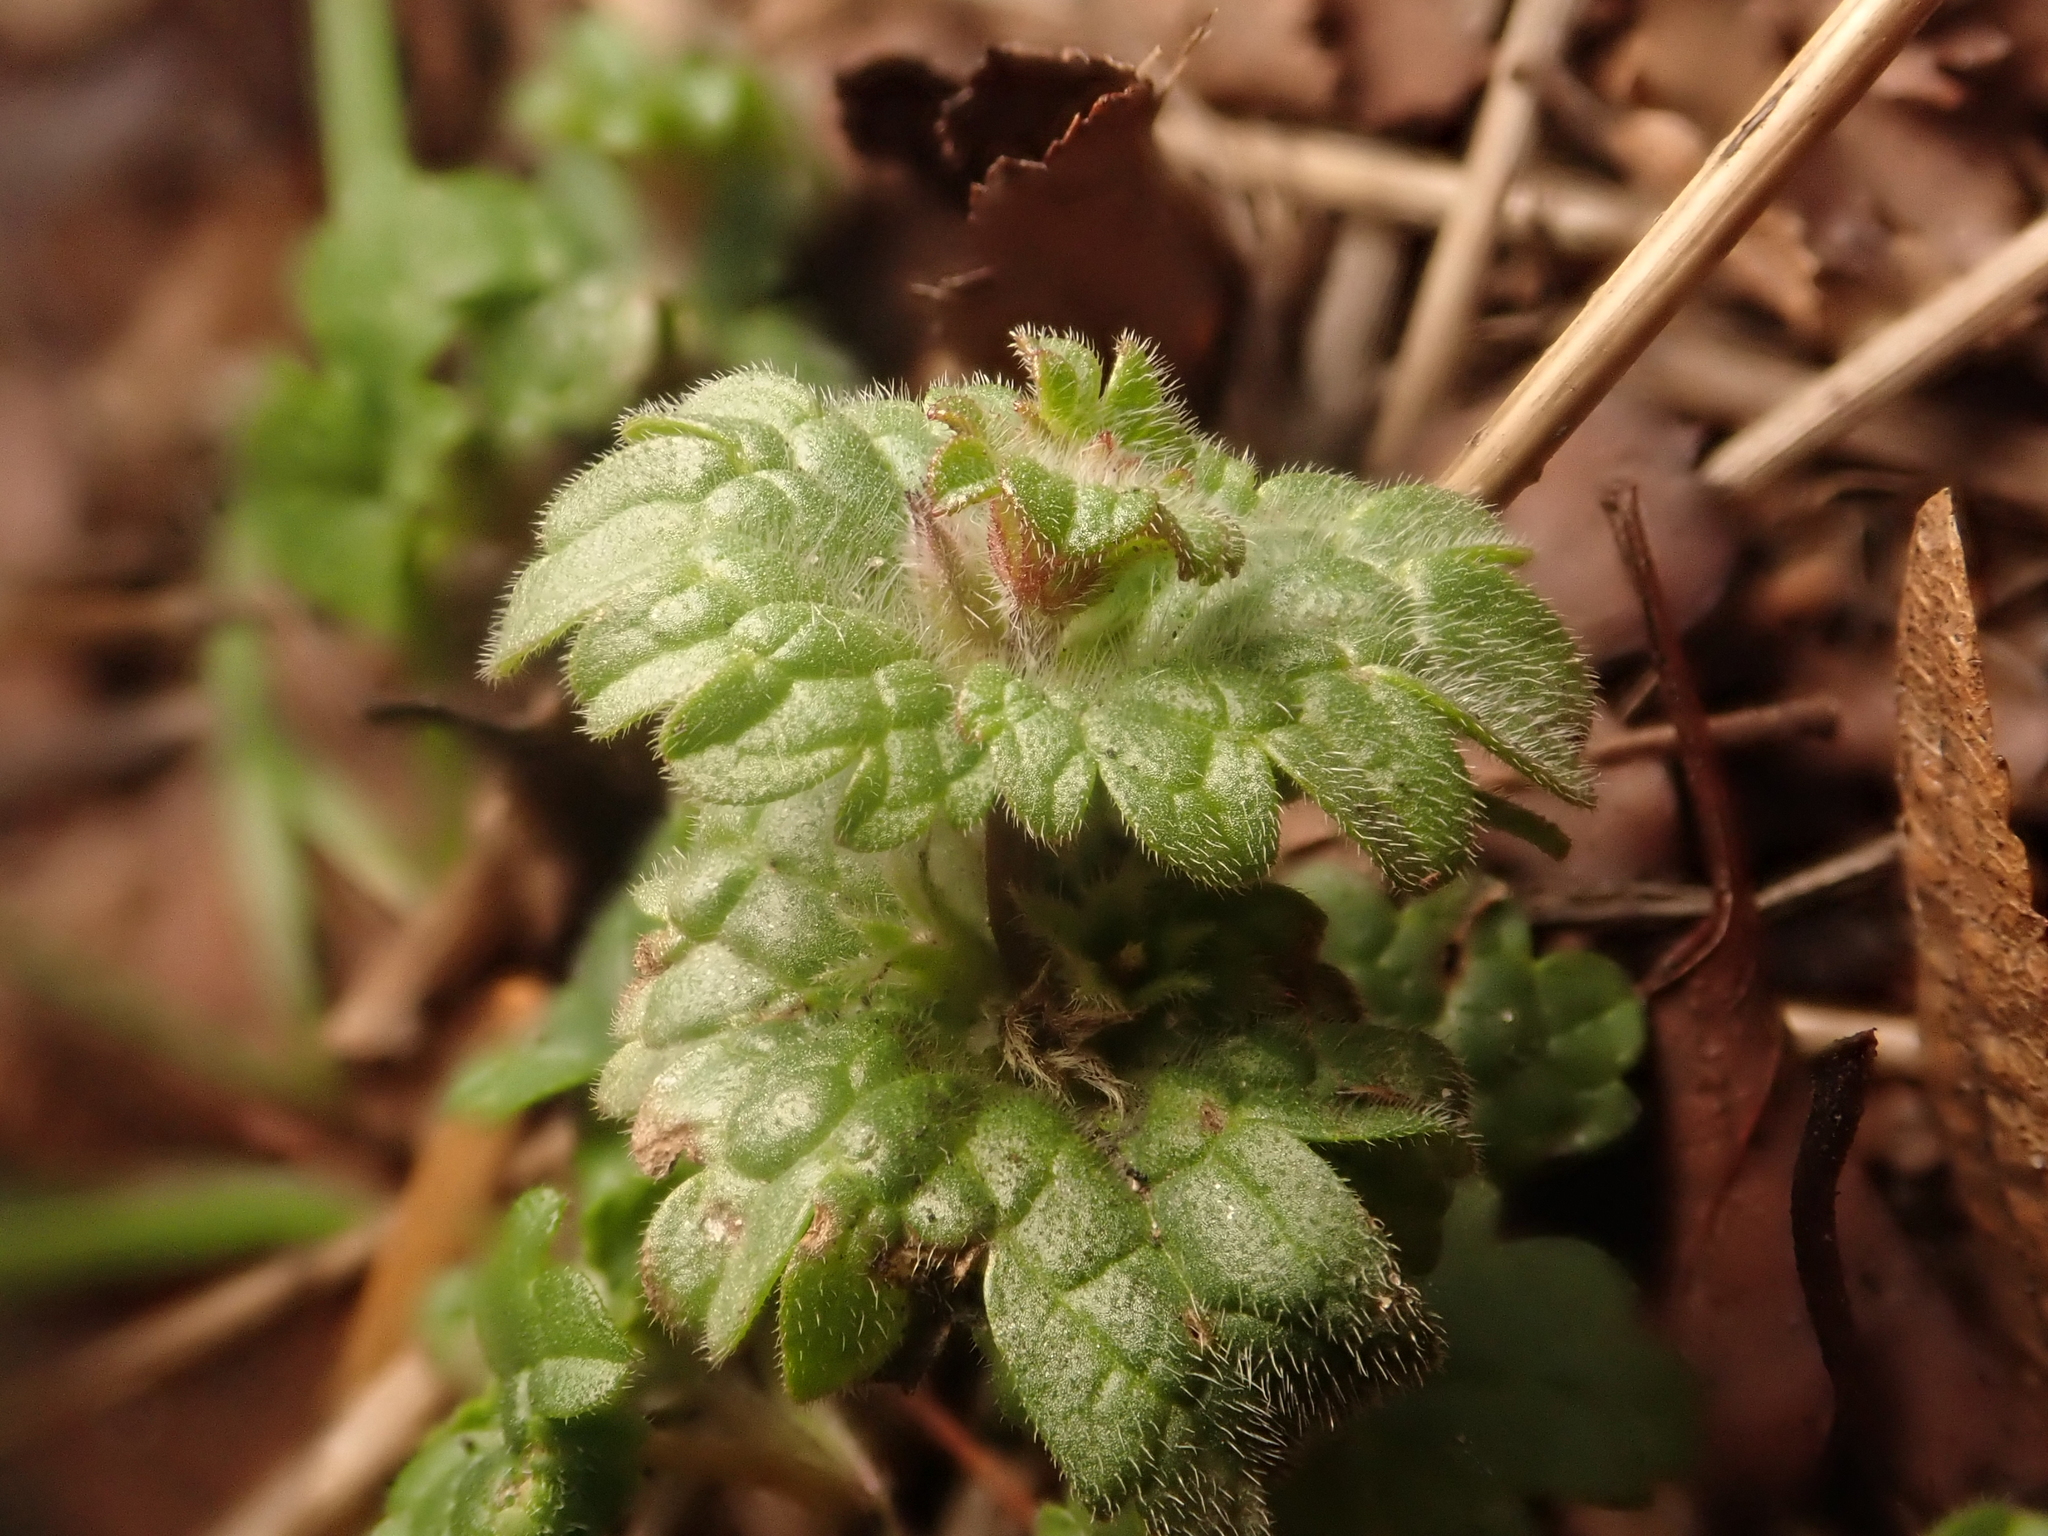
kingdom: Plantae
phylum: Tracheophyta
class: Magnoliopsida
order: Lamiales
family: Lamiaceae
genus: Lamium
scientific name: Lamium amplexicaule
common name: Henbit dead-nettle
